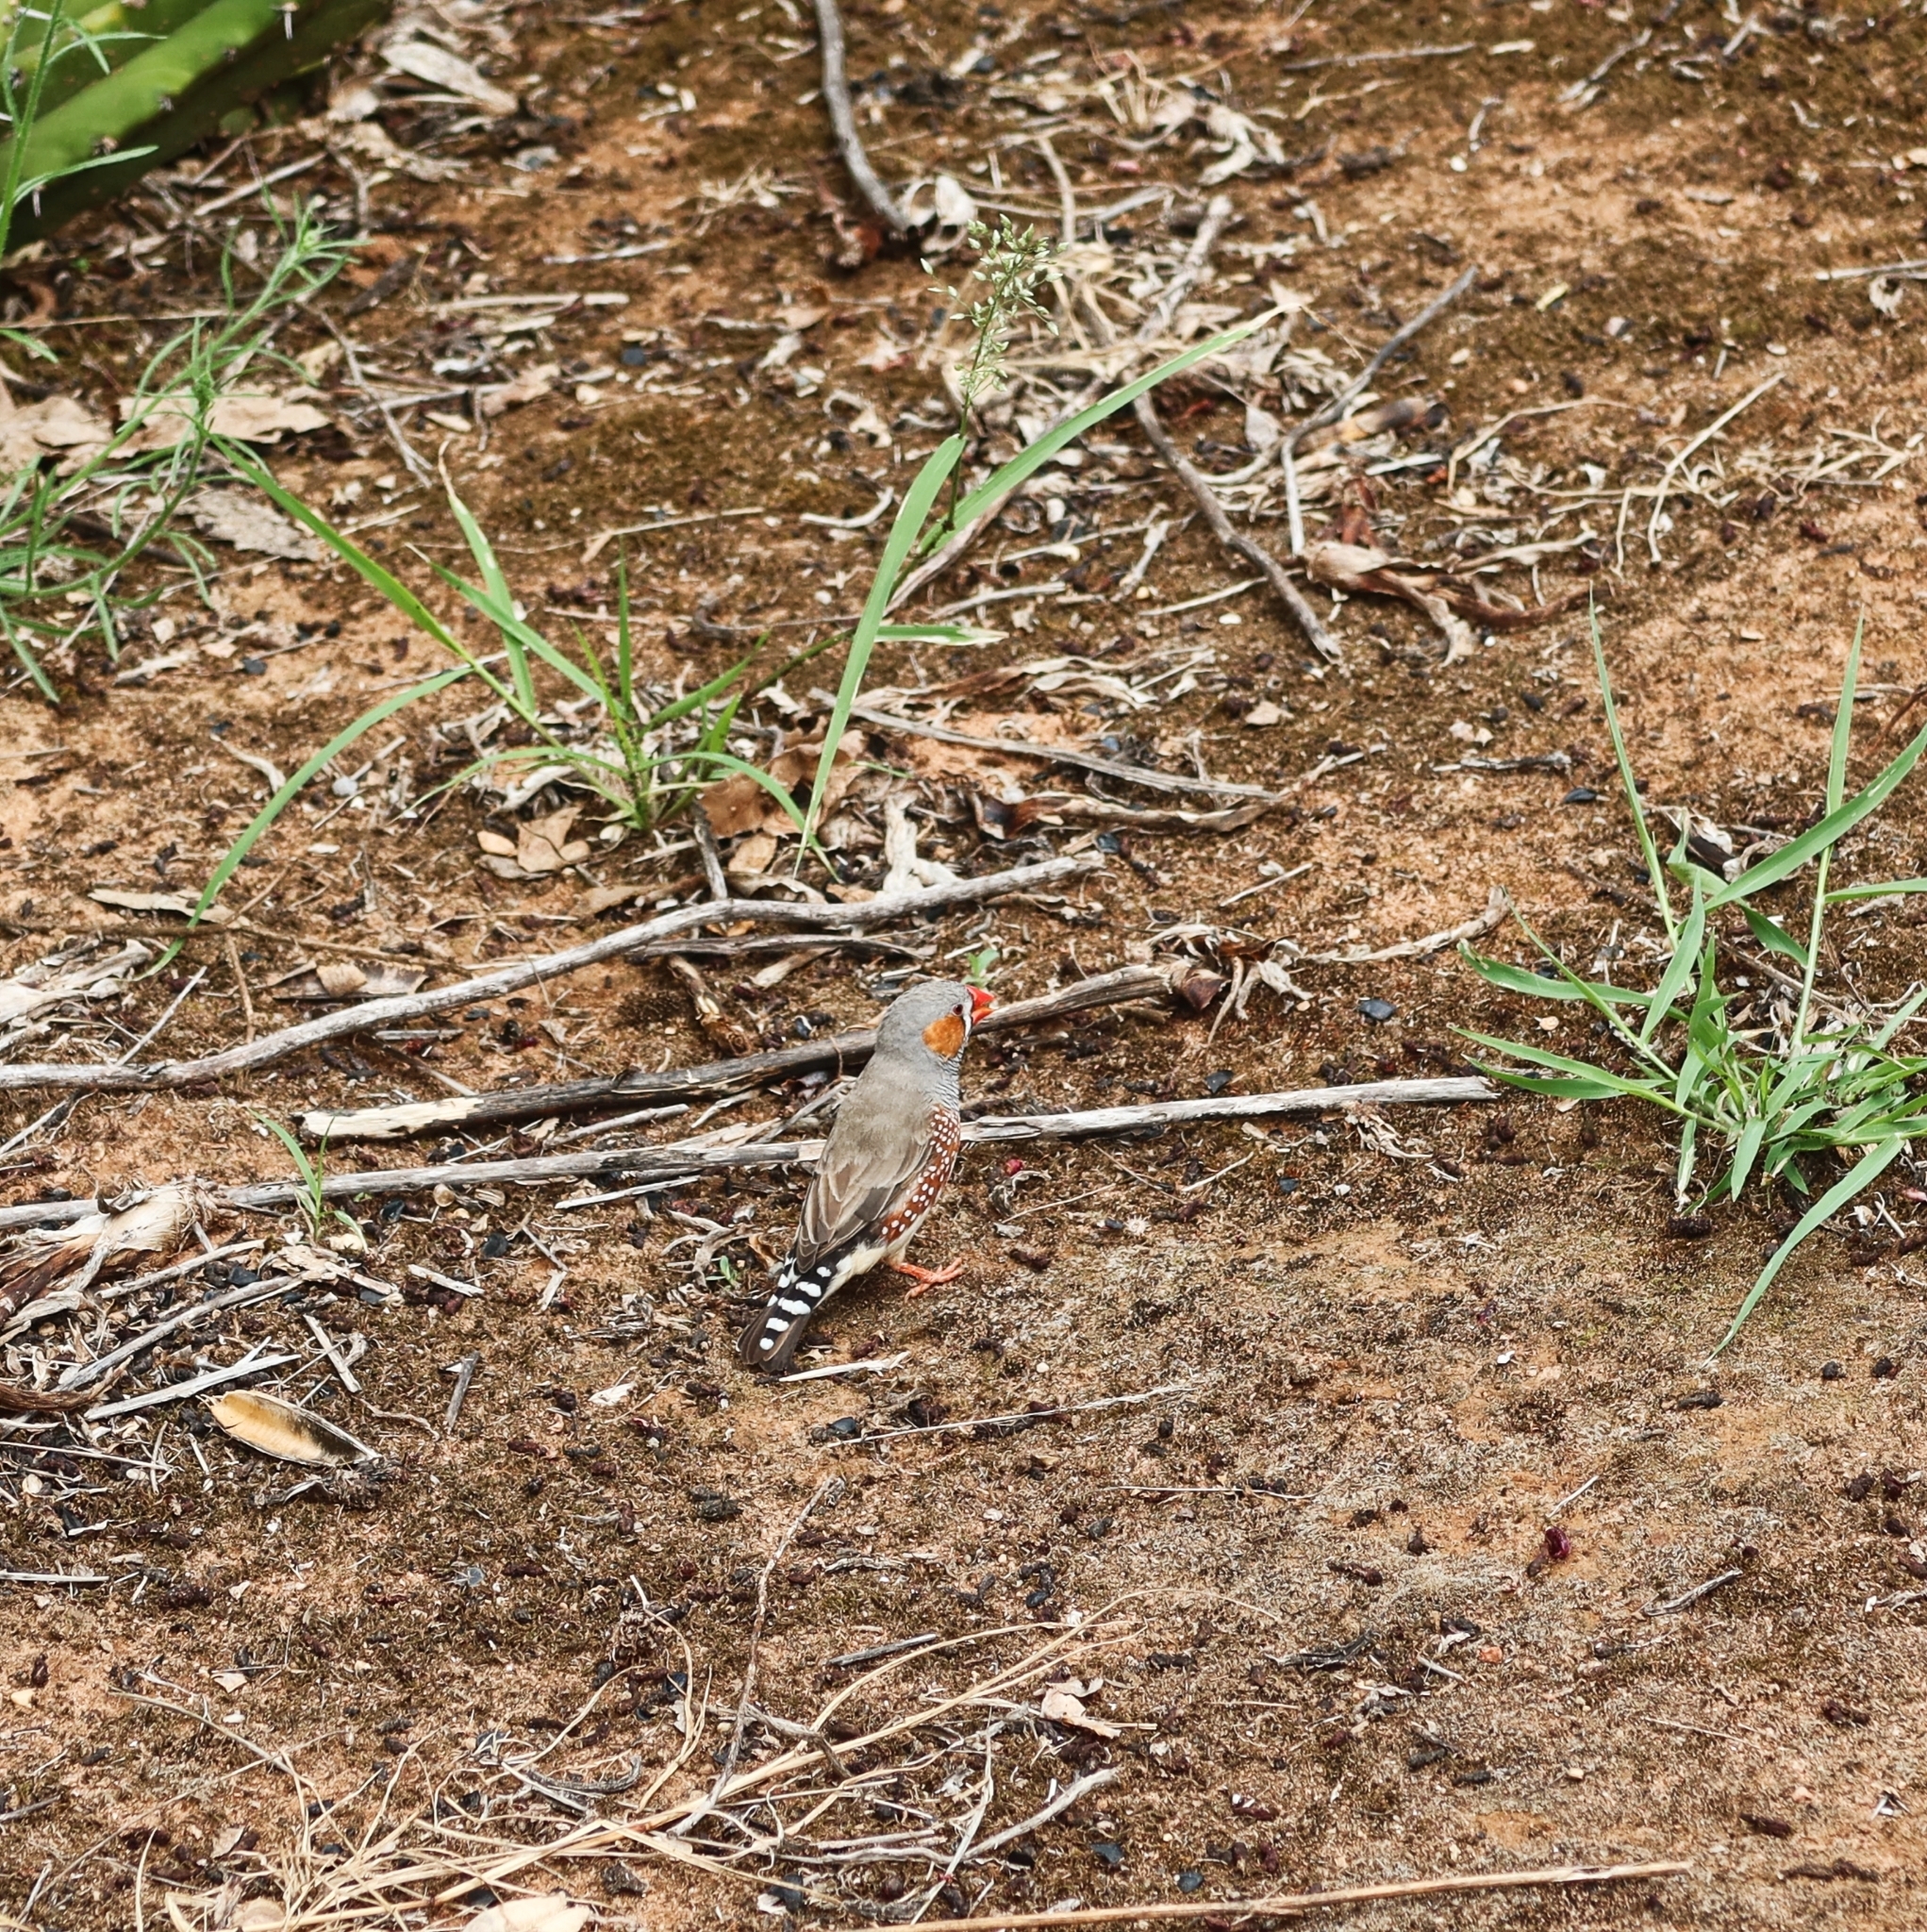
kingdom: Animalia
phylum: Chordata
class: Aves
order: Passeriformes
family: Estrildidae
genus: Taeniopygia
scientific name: Taeniopygia guttata
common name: Zebra finch
